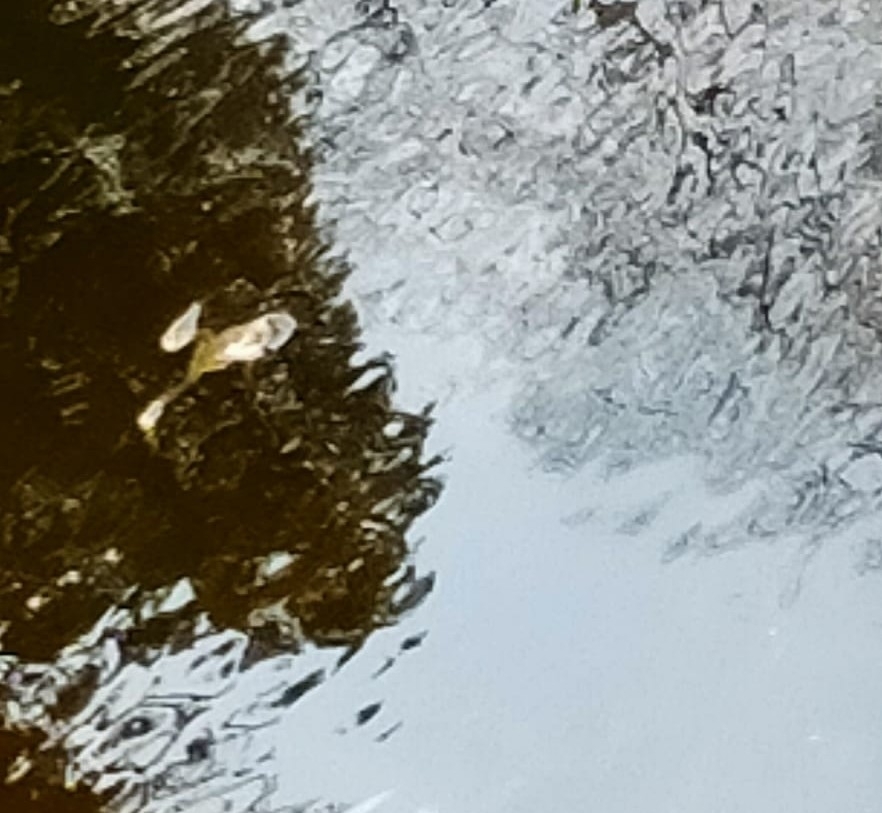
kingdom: Animalia
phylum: Chordata
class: Amphibia
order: Anura
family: Bufonidae
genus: Bufo
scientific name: Bufo bufo
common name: Common toad
